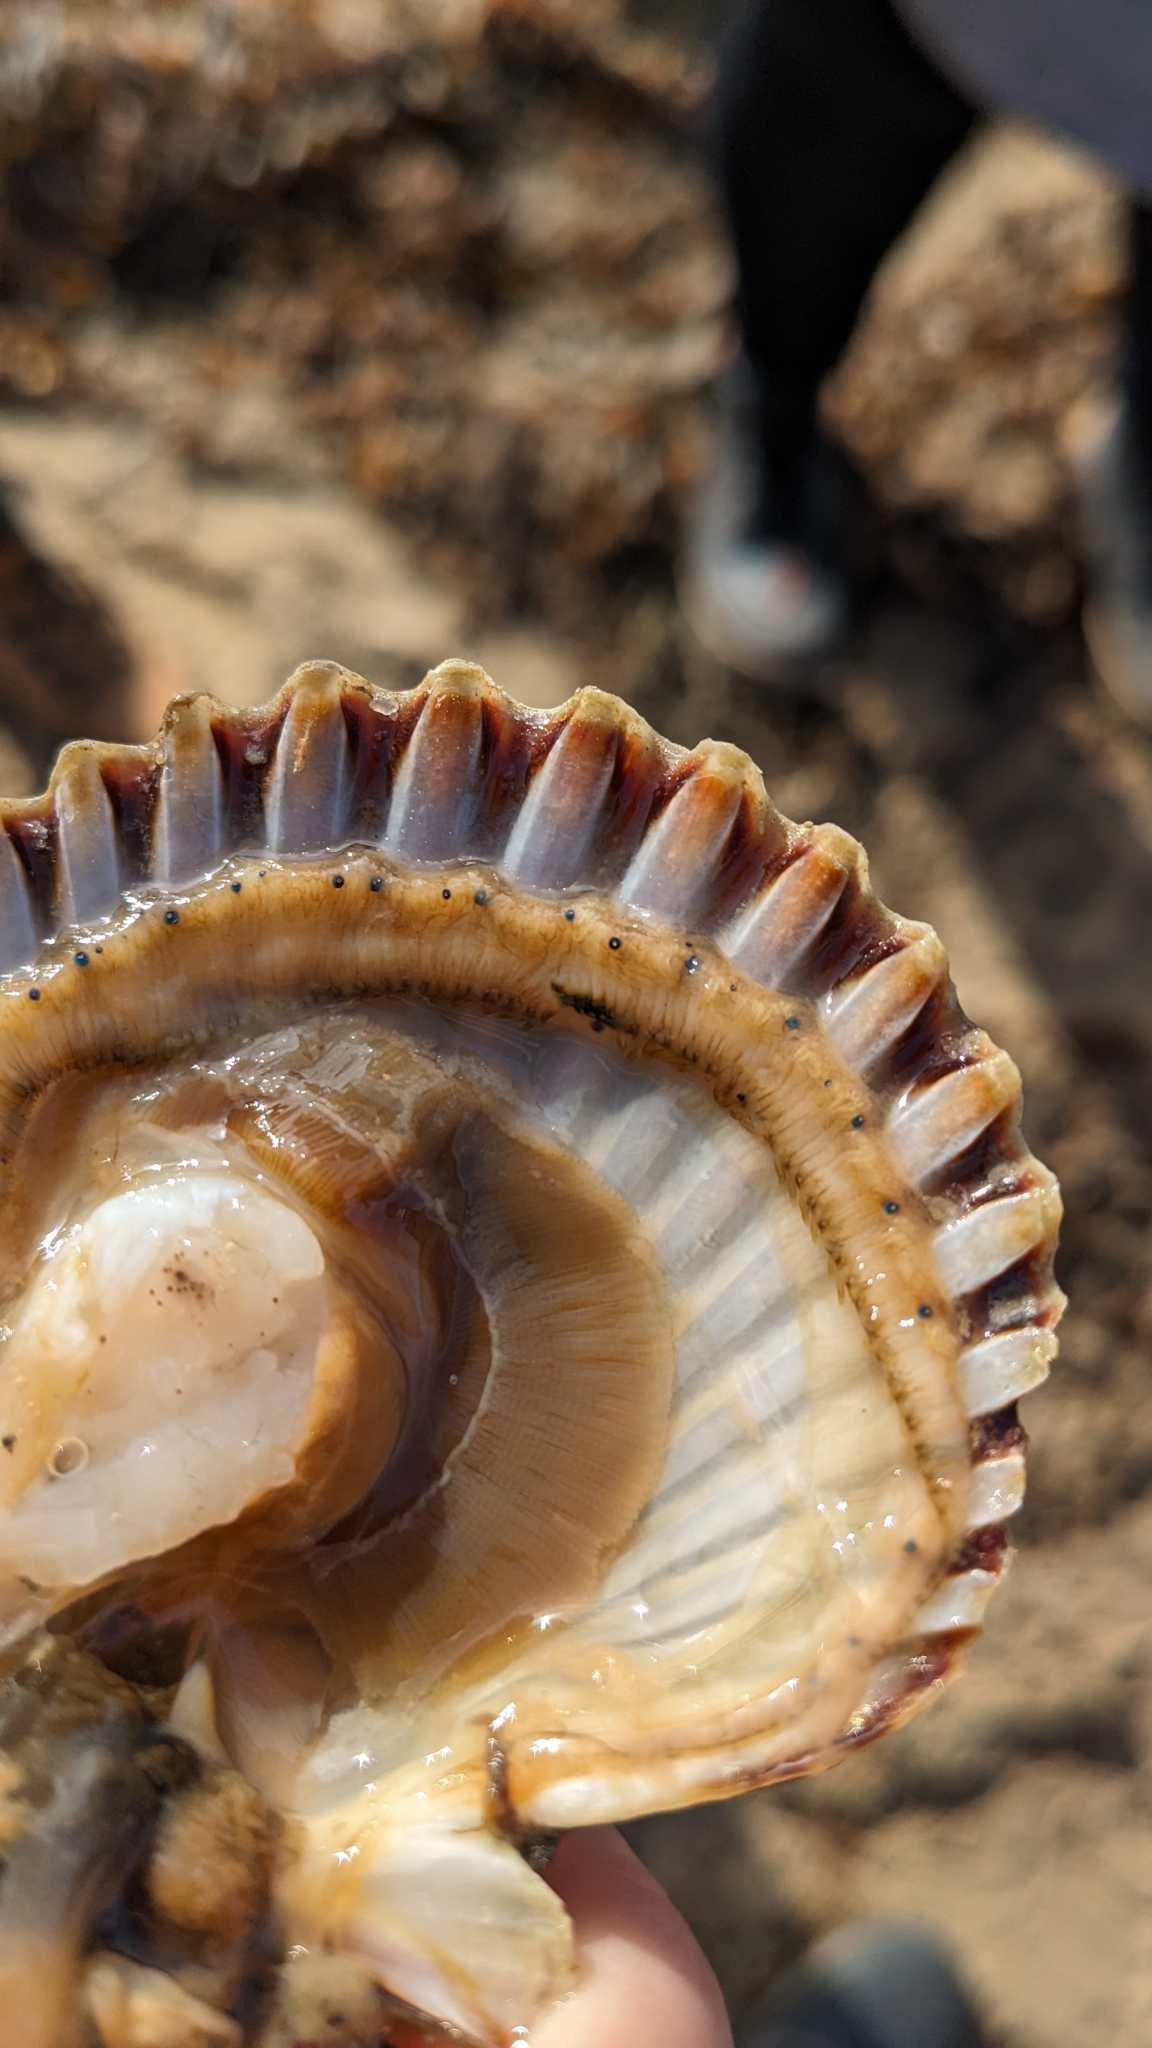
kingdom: Animalia
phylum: Mollusca
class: Bivalvia
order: Pectinida
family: Pectinidae
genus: Argopecten
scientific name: Argopecten irradians
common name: Atlantic bay scallop
